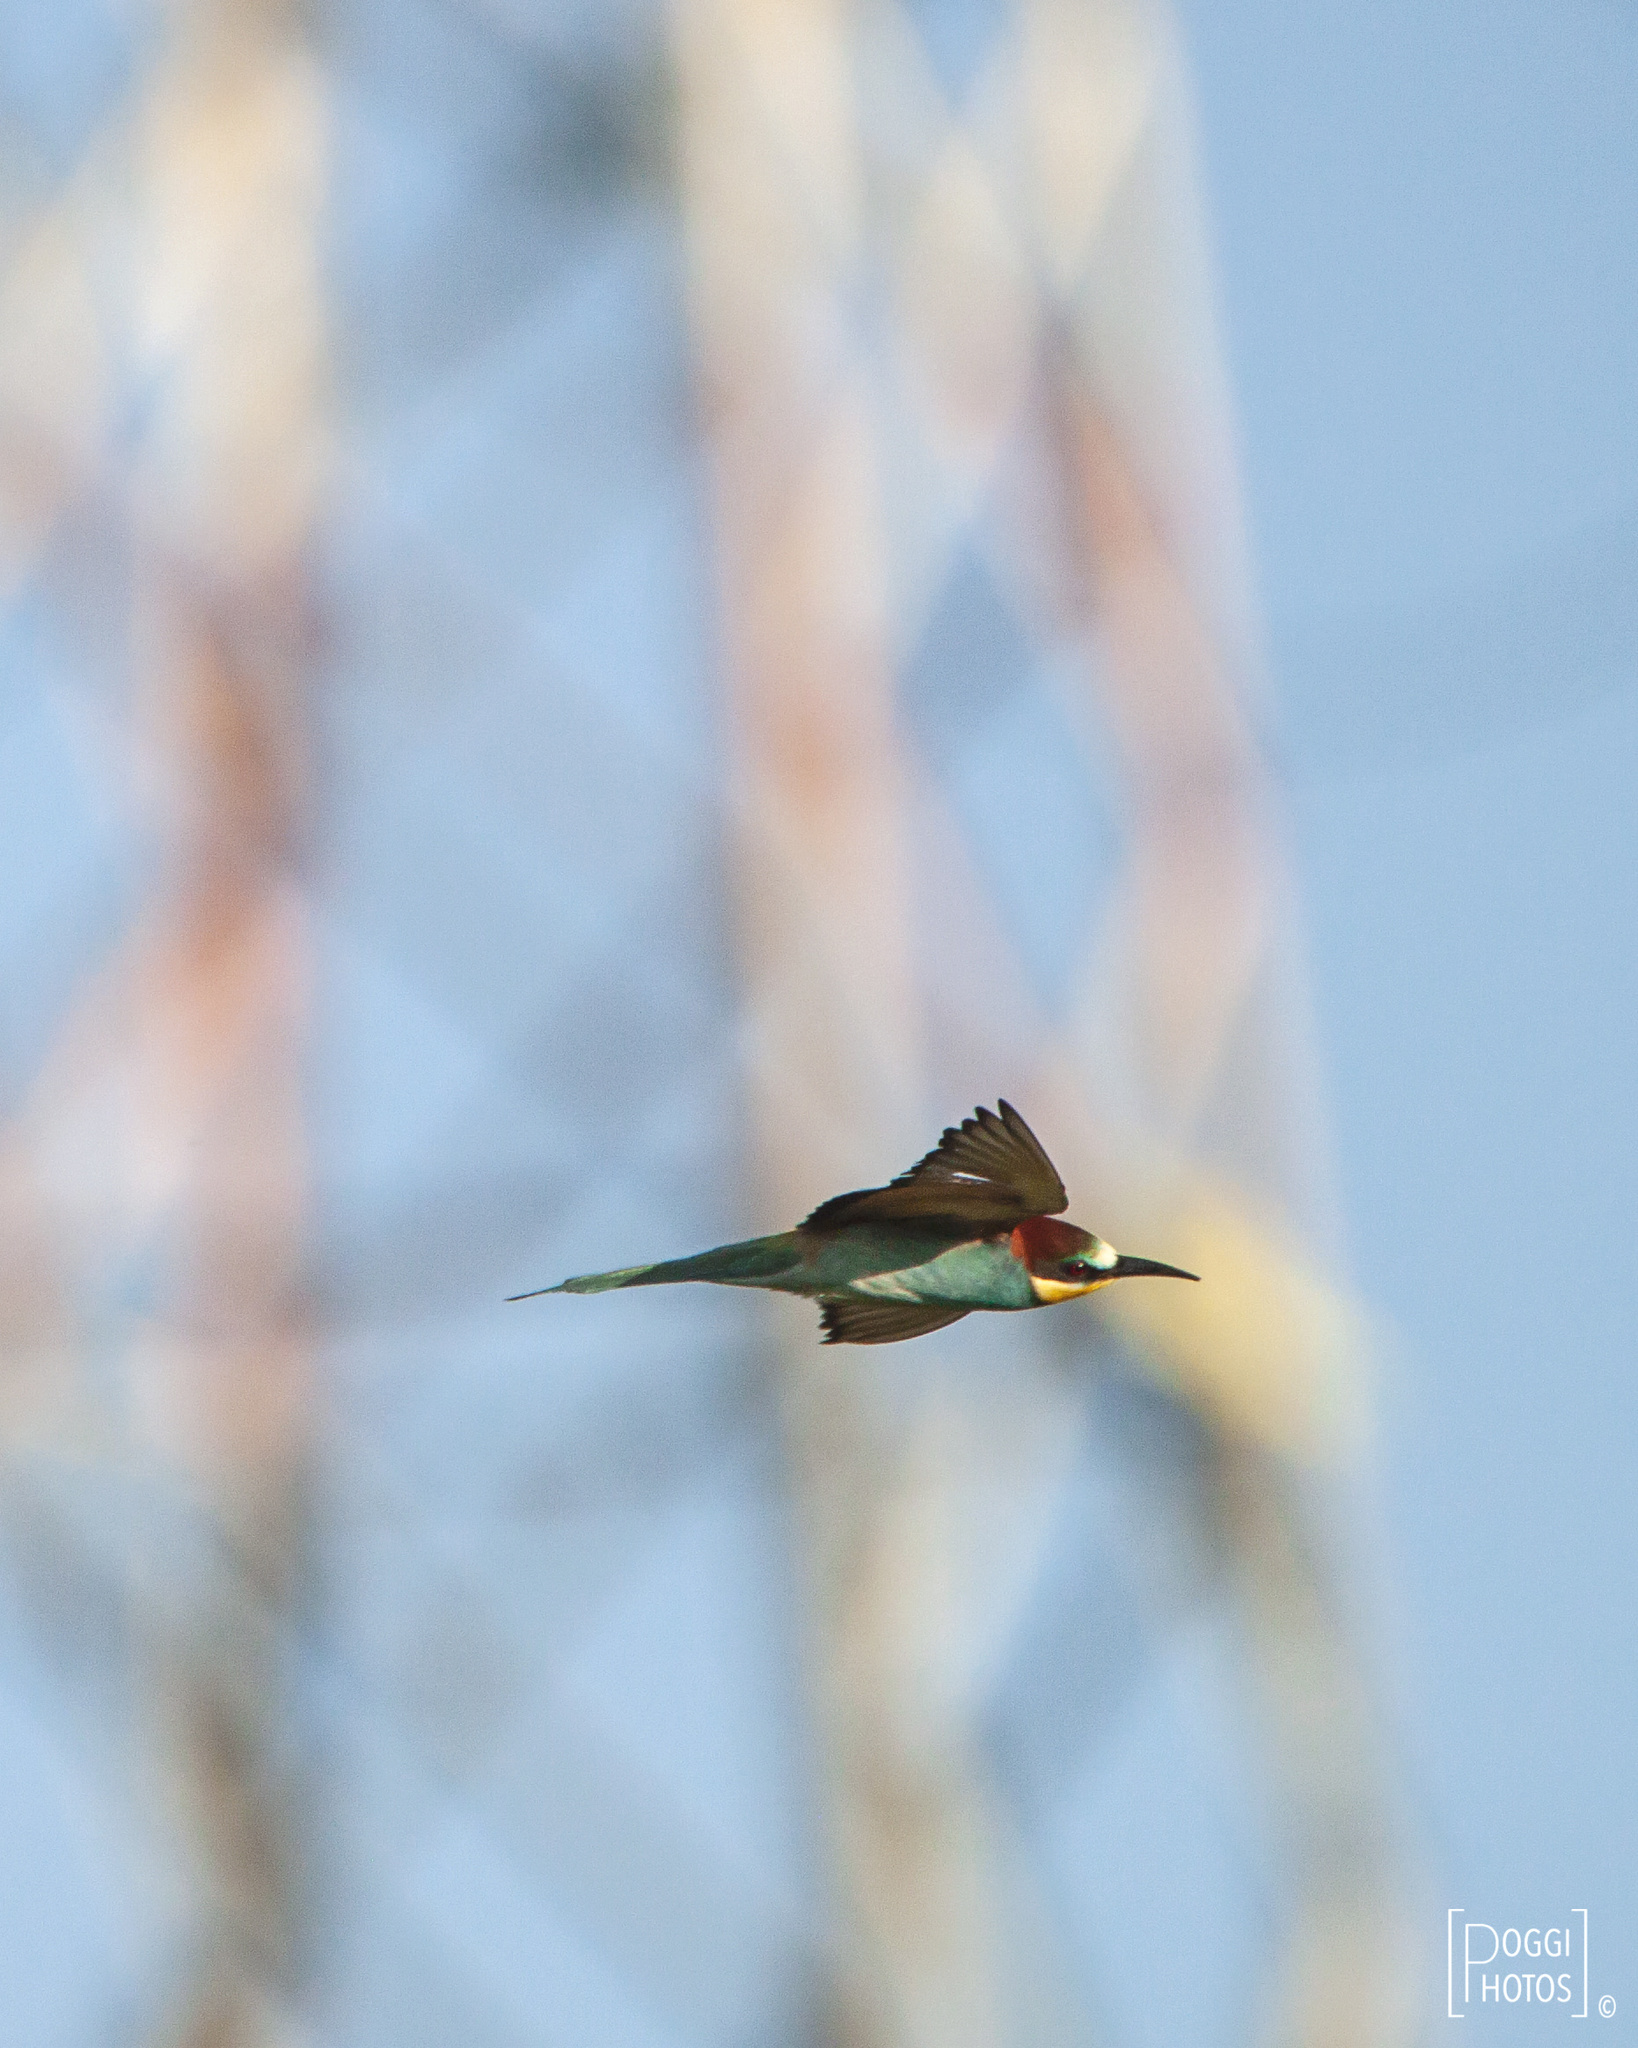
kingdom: Animalia
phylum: Chordata
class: Aves
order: Coraciiformes
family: Meropidae
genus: Merops
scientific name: Merops apiaster
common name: European bee-eater
